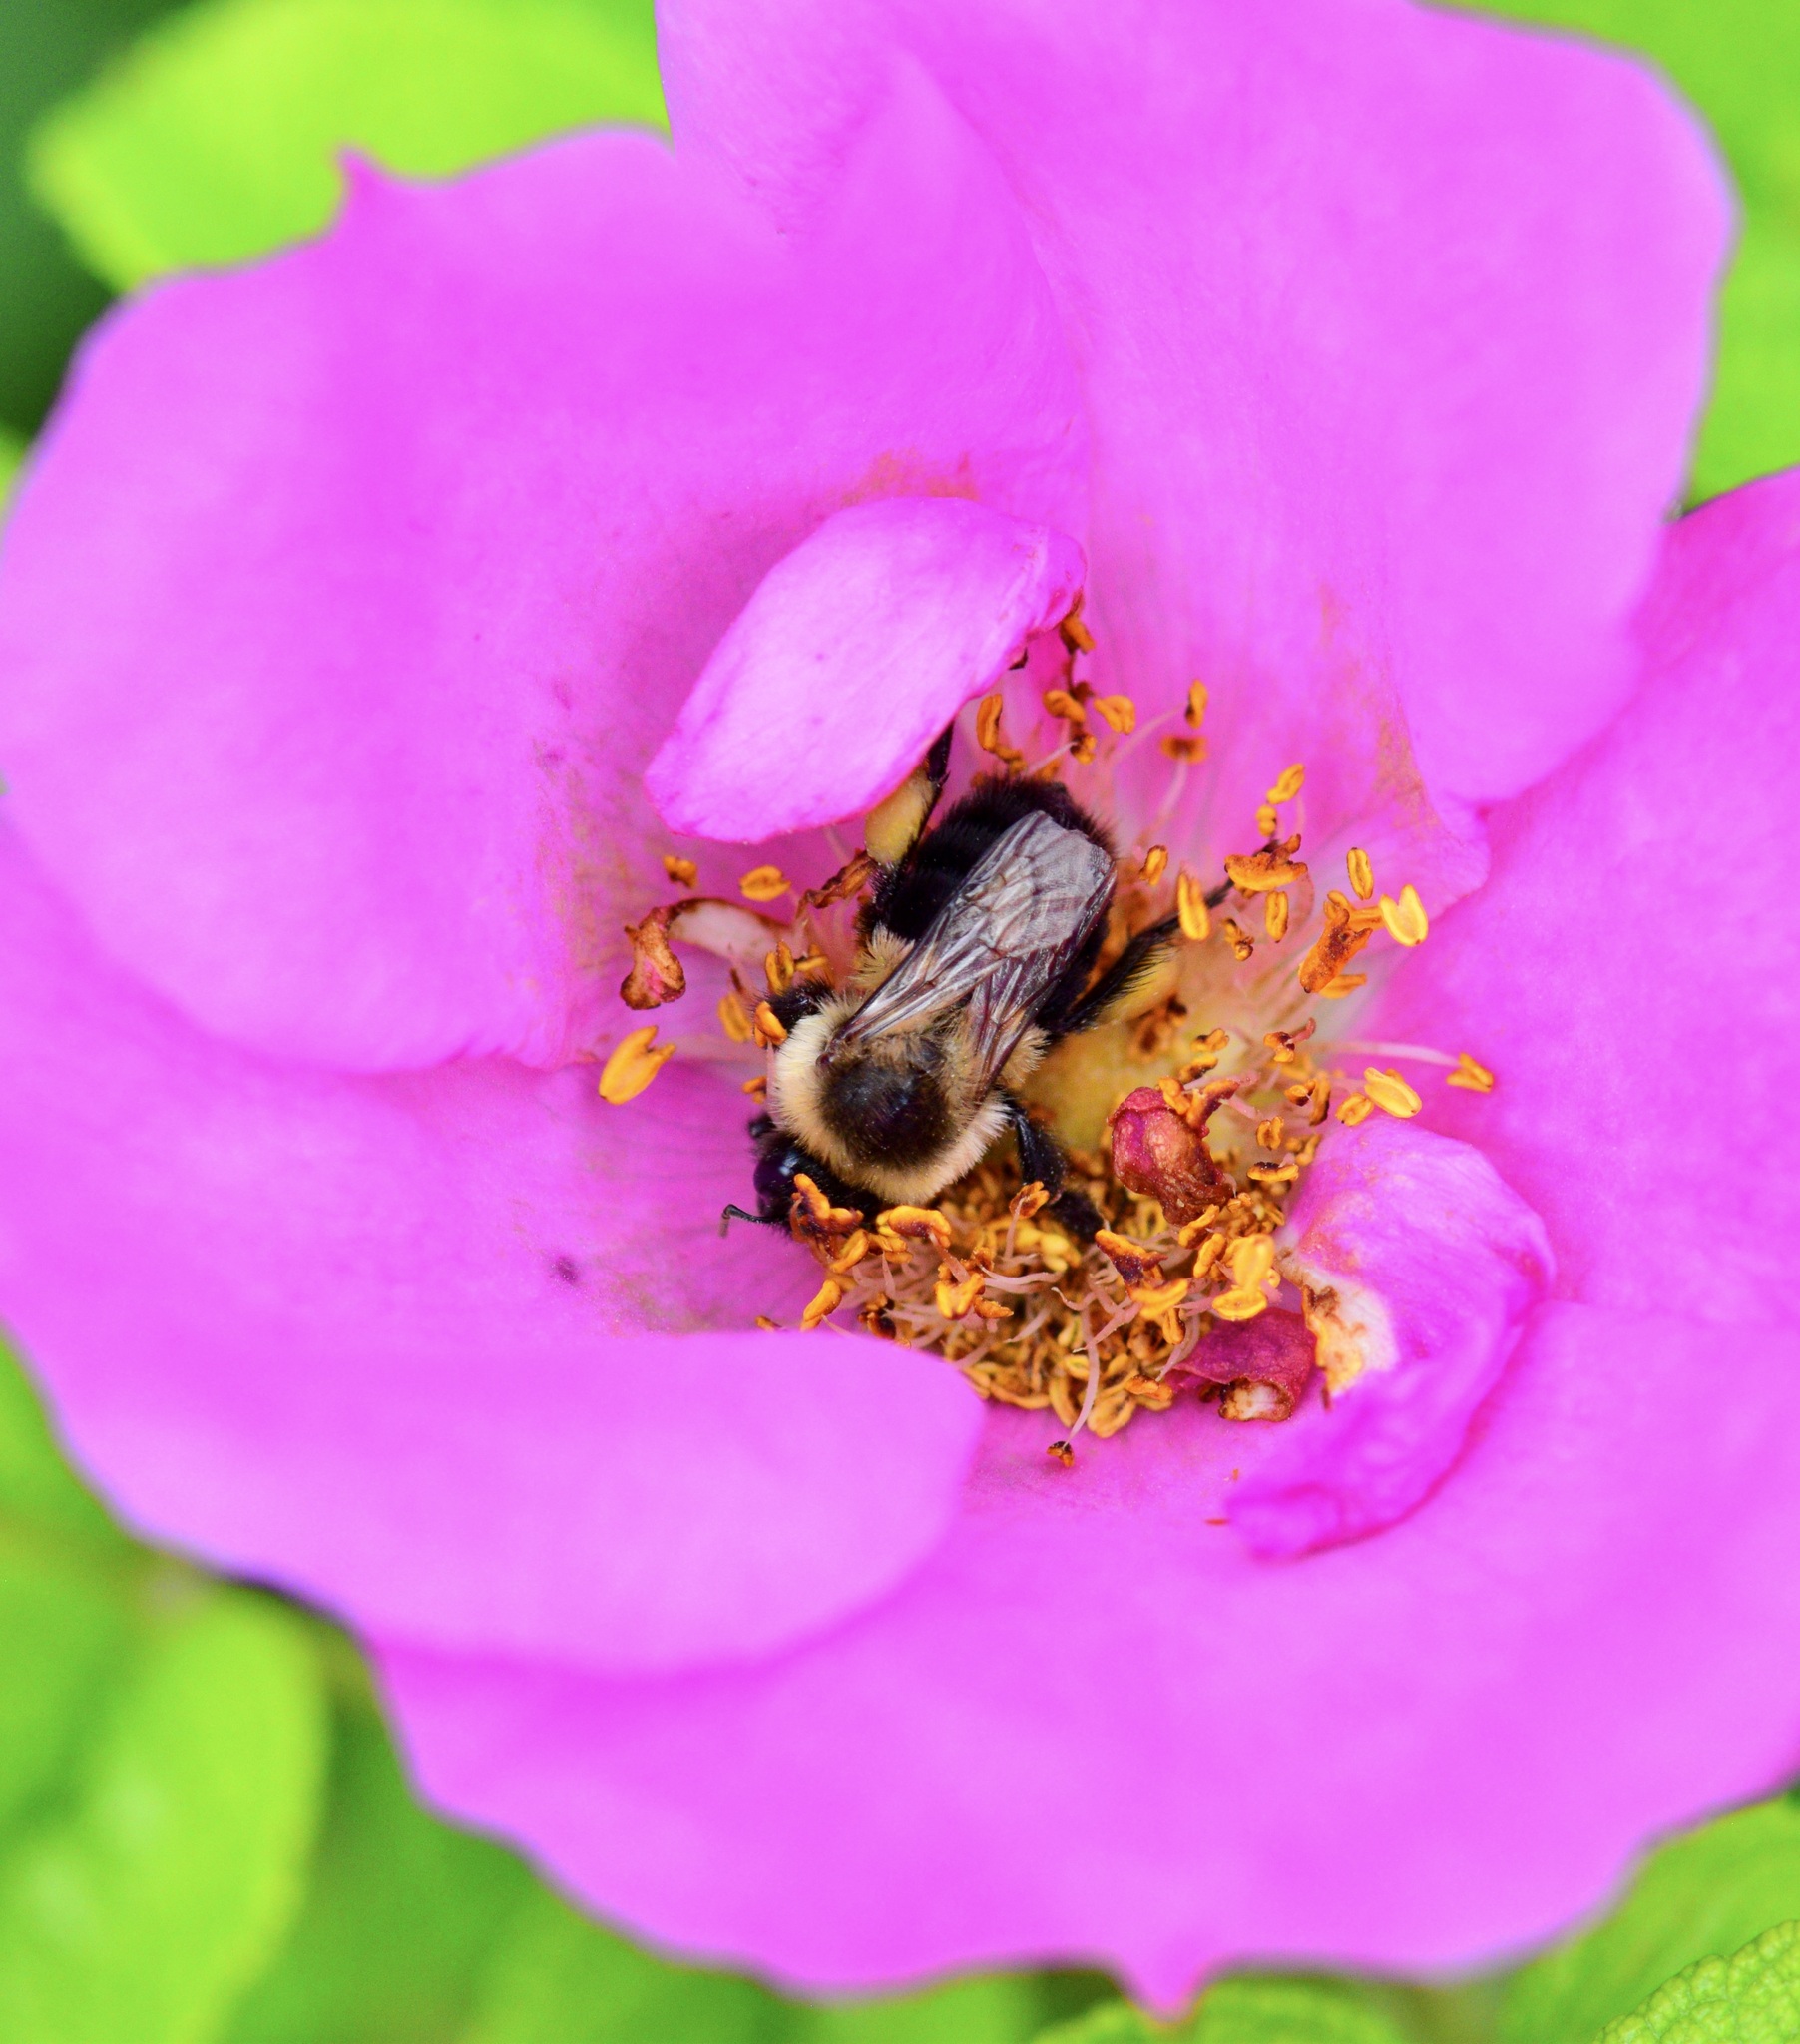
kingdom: Animalia
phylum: Arthropoda
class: Insecta
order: Hymenoptera
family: Apidae
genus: Bombus
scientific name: Bombus impatiens
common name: Common eastern bumble bee
